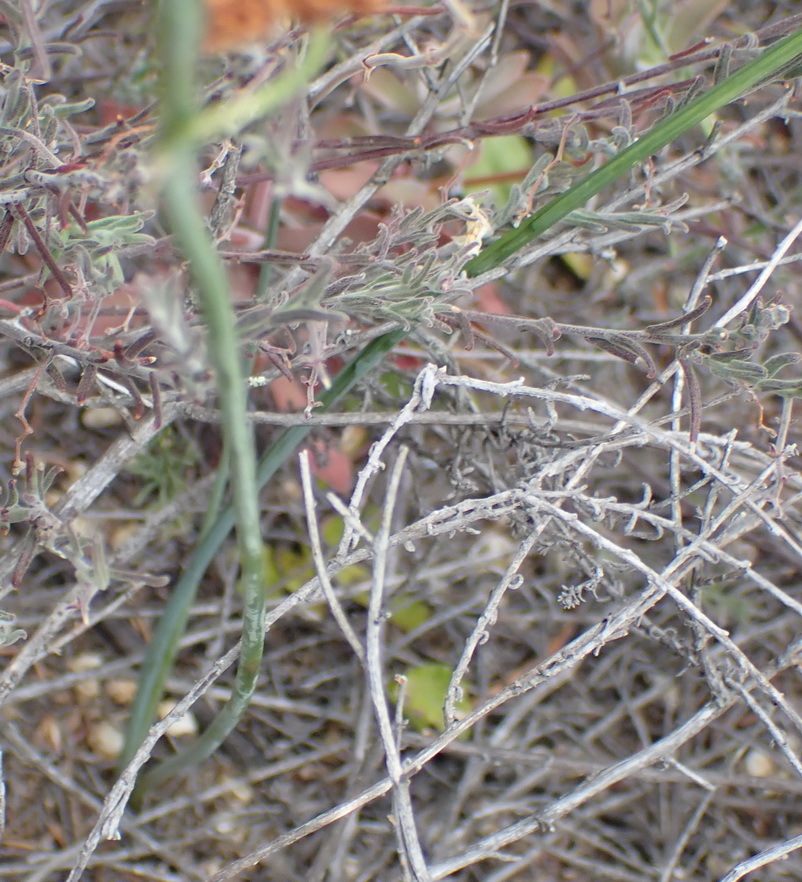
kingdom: Plantae
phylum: Tracheophyta
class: Liliopsida
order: Asparagales
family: Asparagaceae
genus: Dipcadi
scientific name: Dipcadi viride
